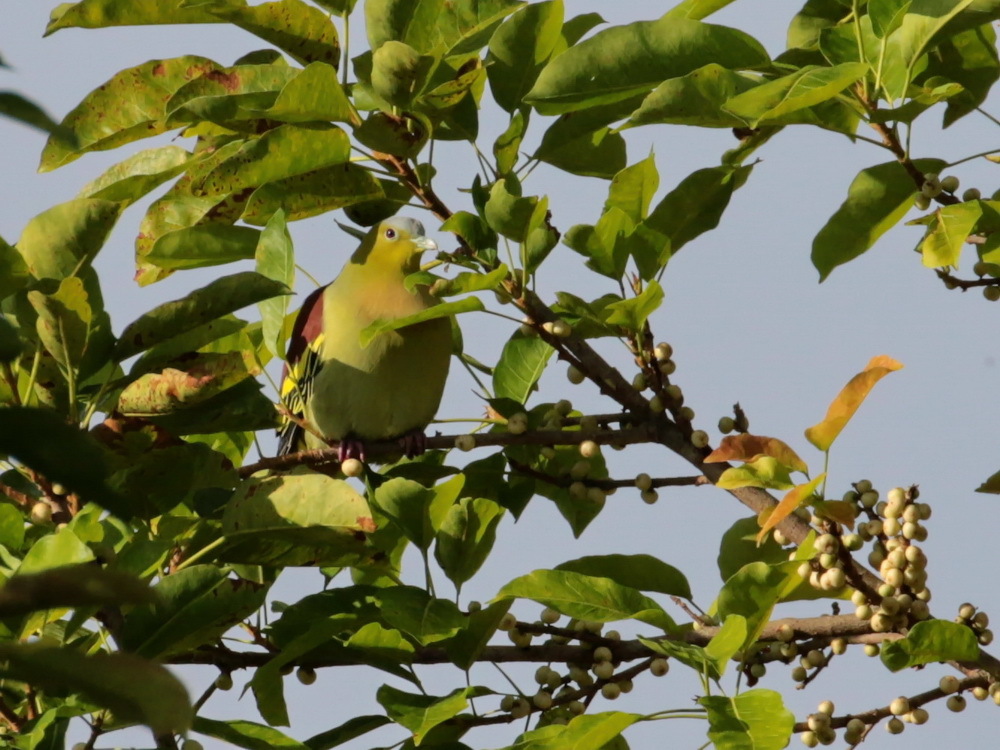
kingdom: Animalia
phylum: Chordata
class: Aves
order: Columbiformes
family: Columbidae
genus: Treron
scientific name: Treron phayrei
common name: Ashy-headed green pigeon
